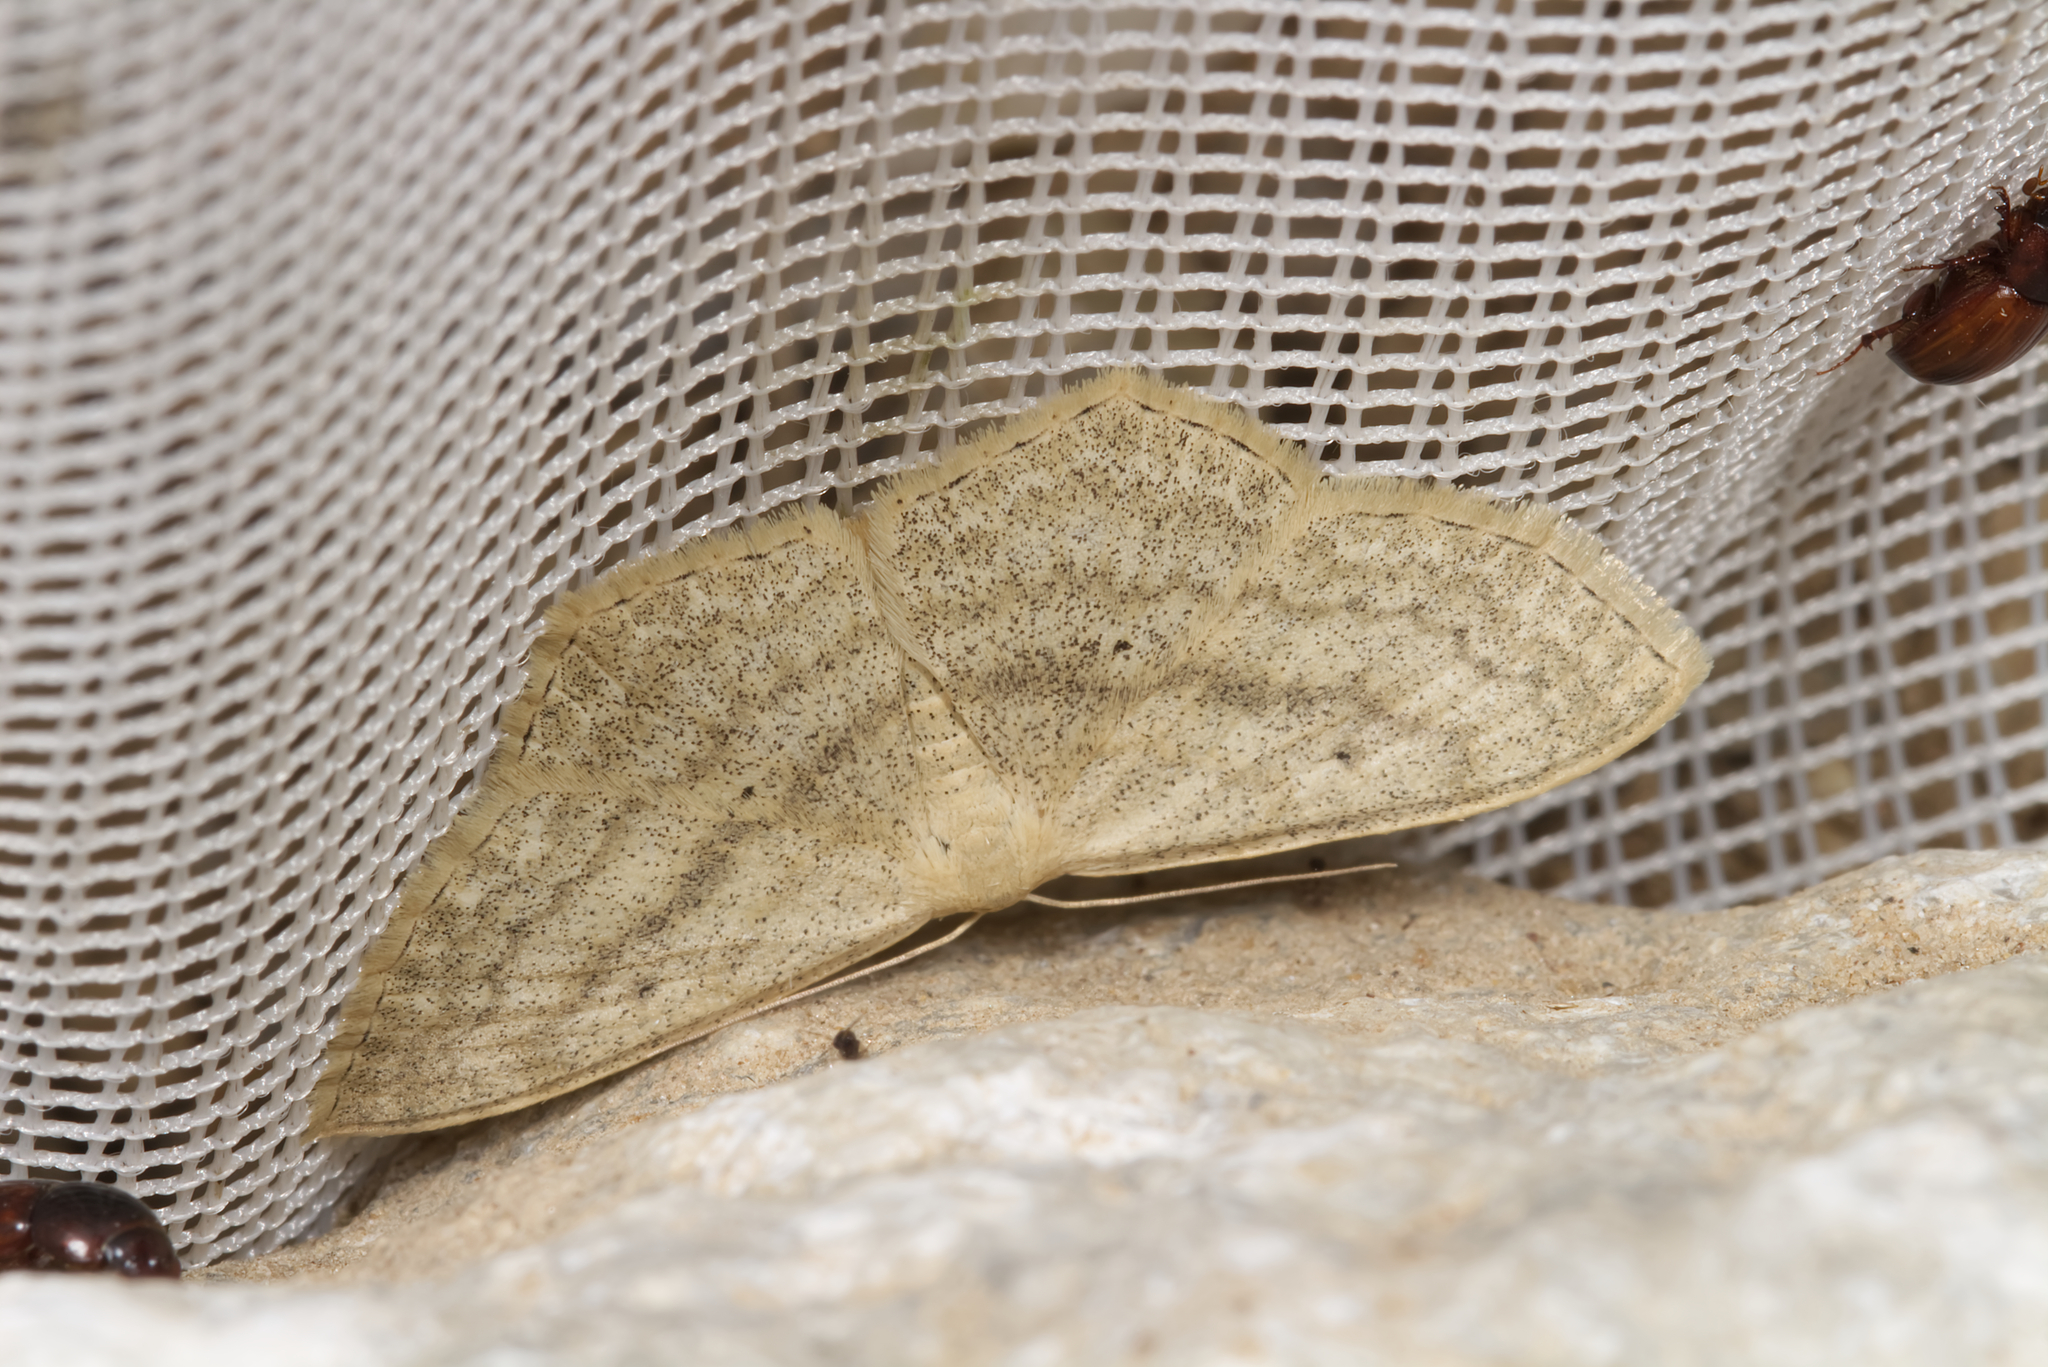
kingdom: Animalia
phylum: Arthropoda
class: Insecta
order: Lepidoptera
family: Geometridae
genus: Scopula
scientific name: Scopula nigropunctata
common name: Sub-angled wave
